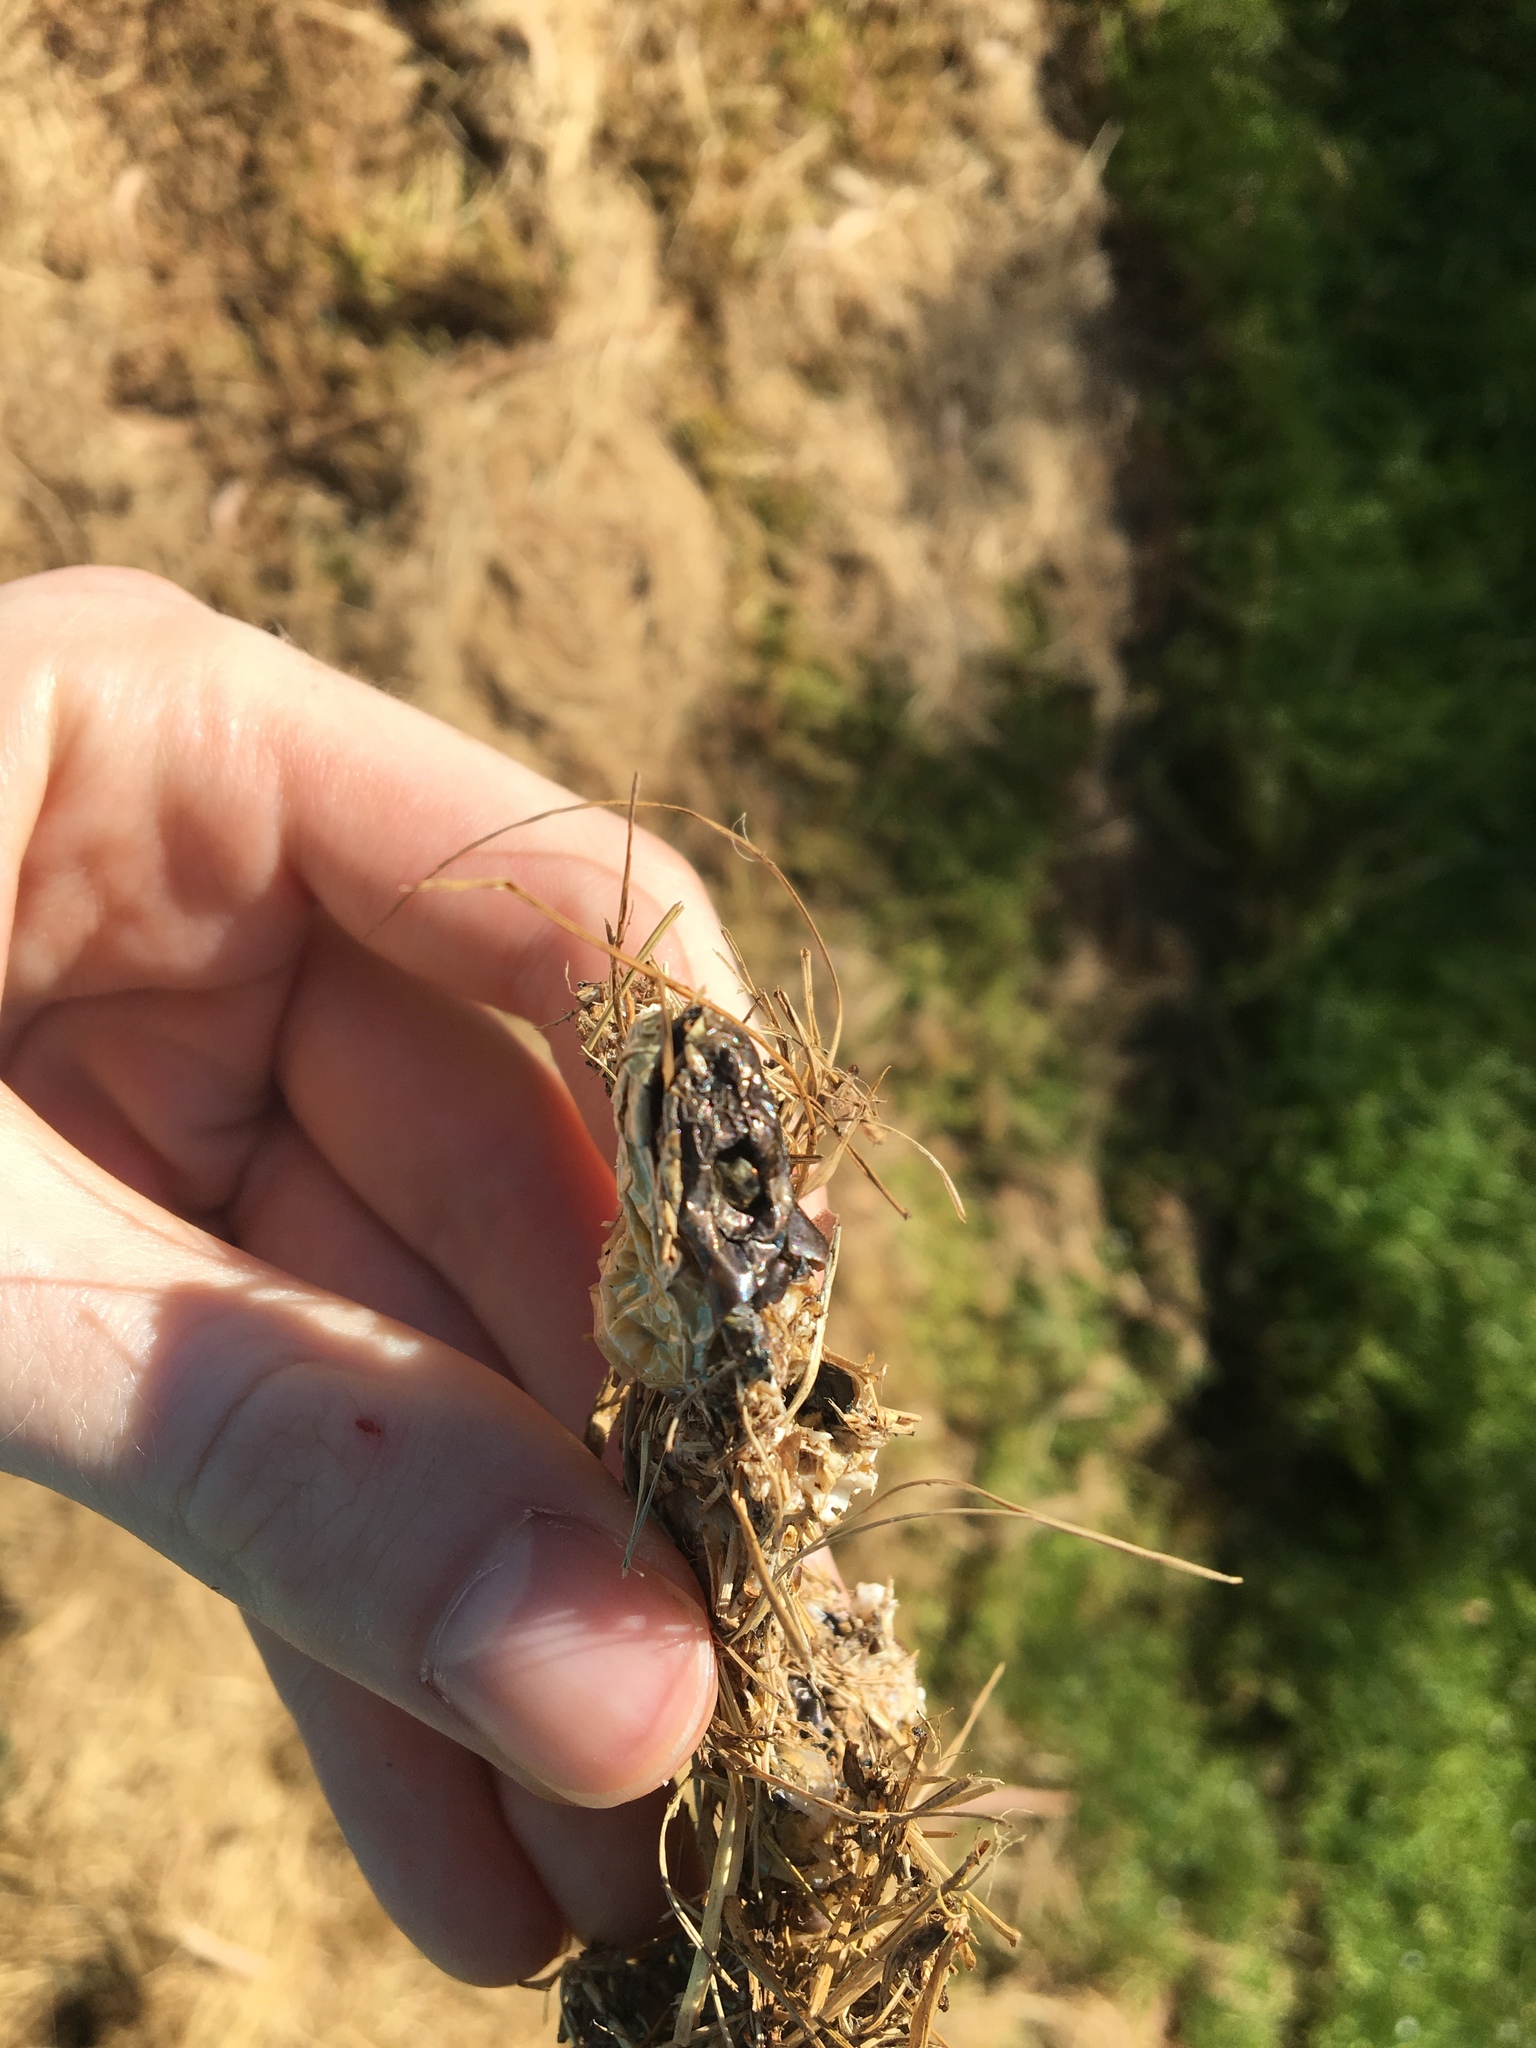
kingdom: Animalia
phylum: Chordata
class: Squamata
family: Elapidae
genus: Notechis
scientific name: Notechis scutatus
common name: Mainland tiger snake
